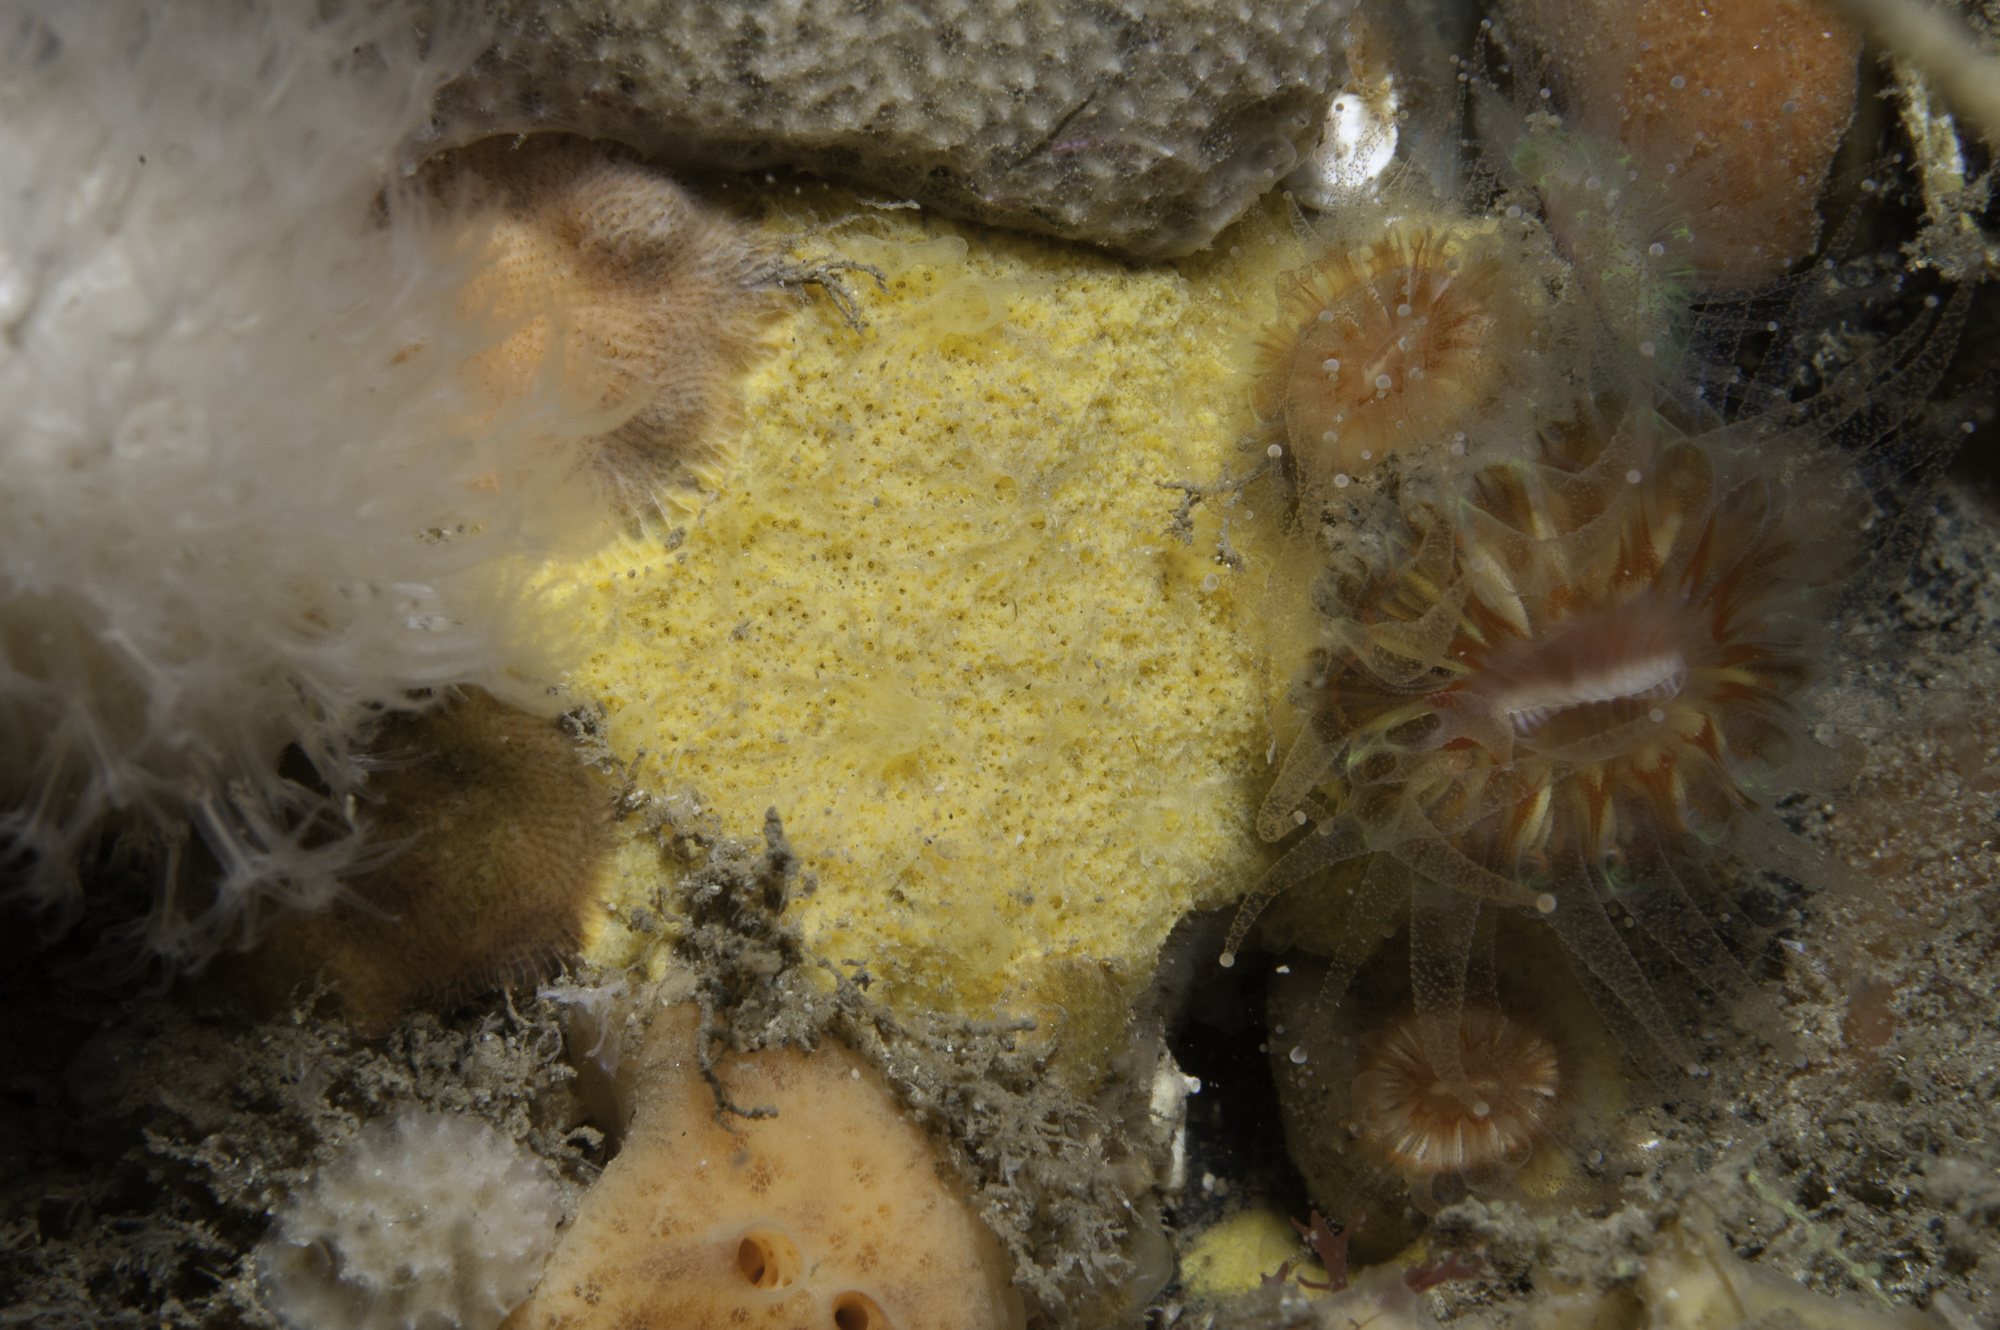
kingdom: Animalia
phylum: Porifera
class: Demospongiae
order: Agelasida
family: Hymerhabdiidae
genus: Hymerhabdia
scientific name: Hymerhabdia typica
